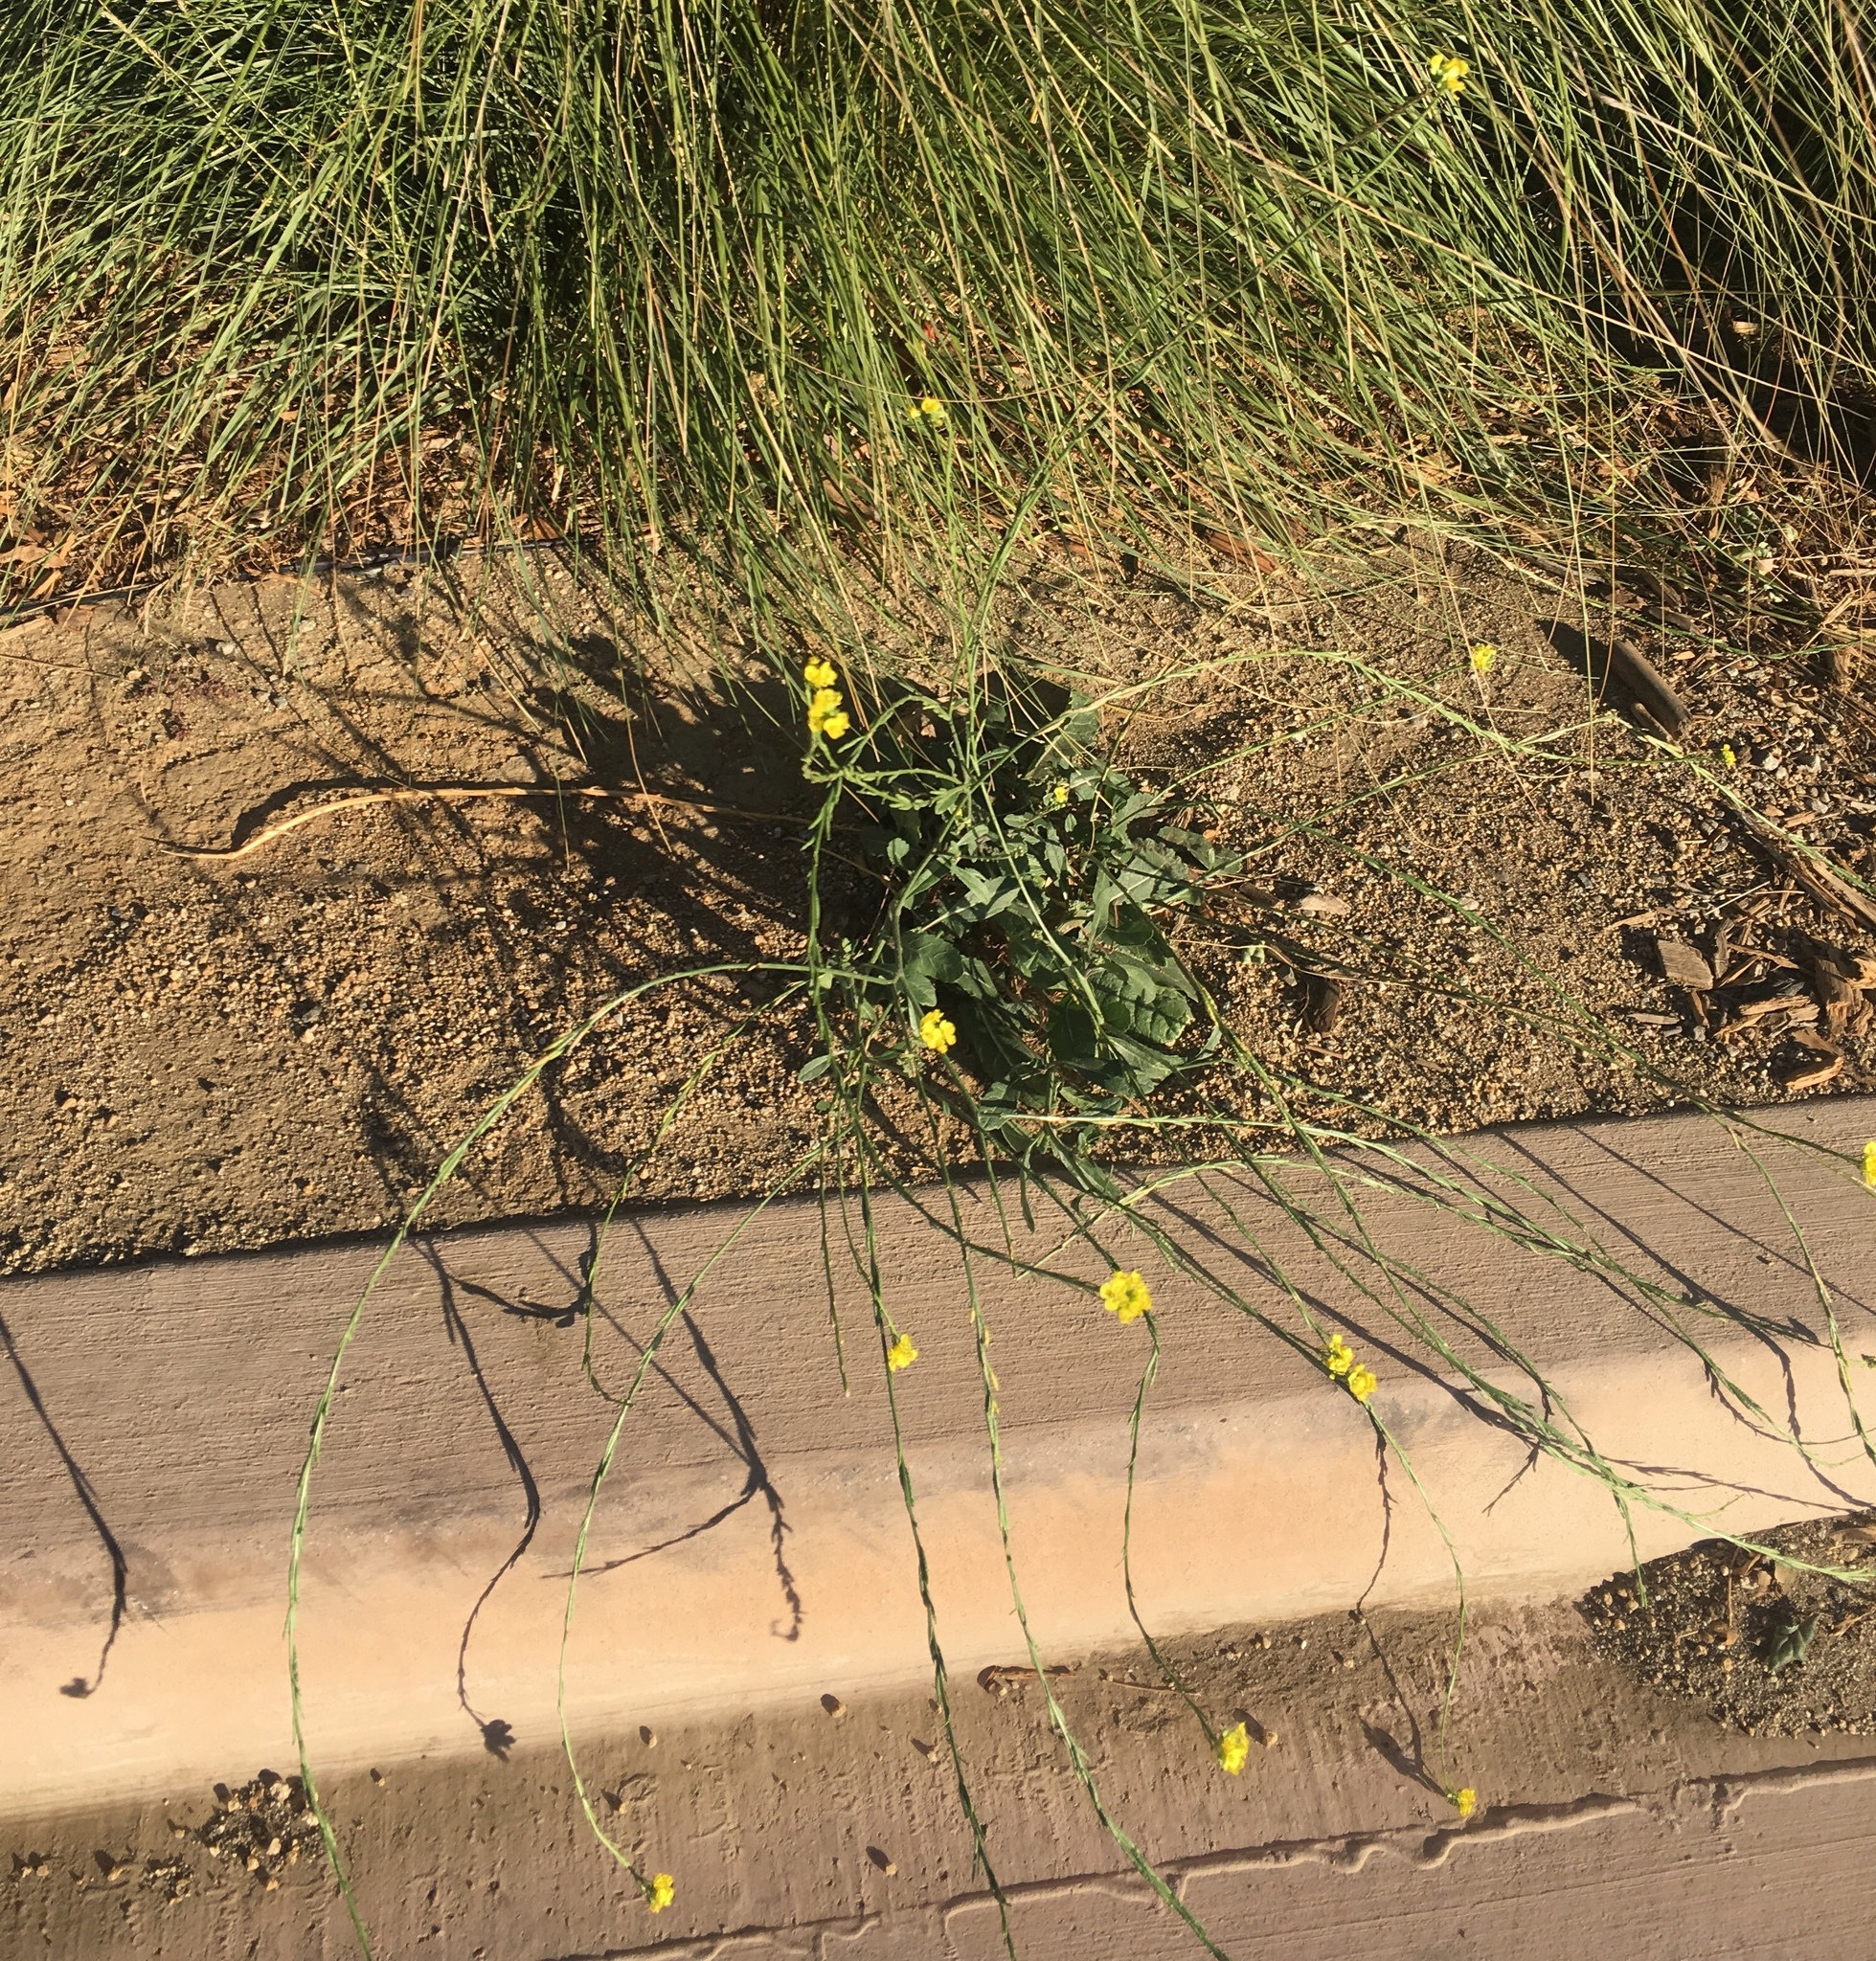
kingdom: Plantae
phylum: Tracheophyta
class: Magnoliopsida
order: Brassicales
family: Brassicaceae
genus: Hirschfeldia
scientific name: Hirschfeldia incana
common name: Hoary mustard
